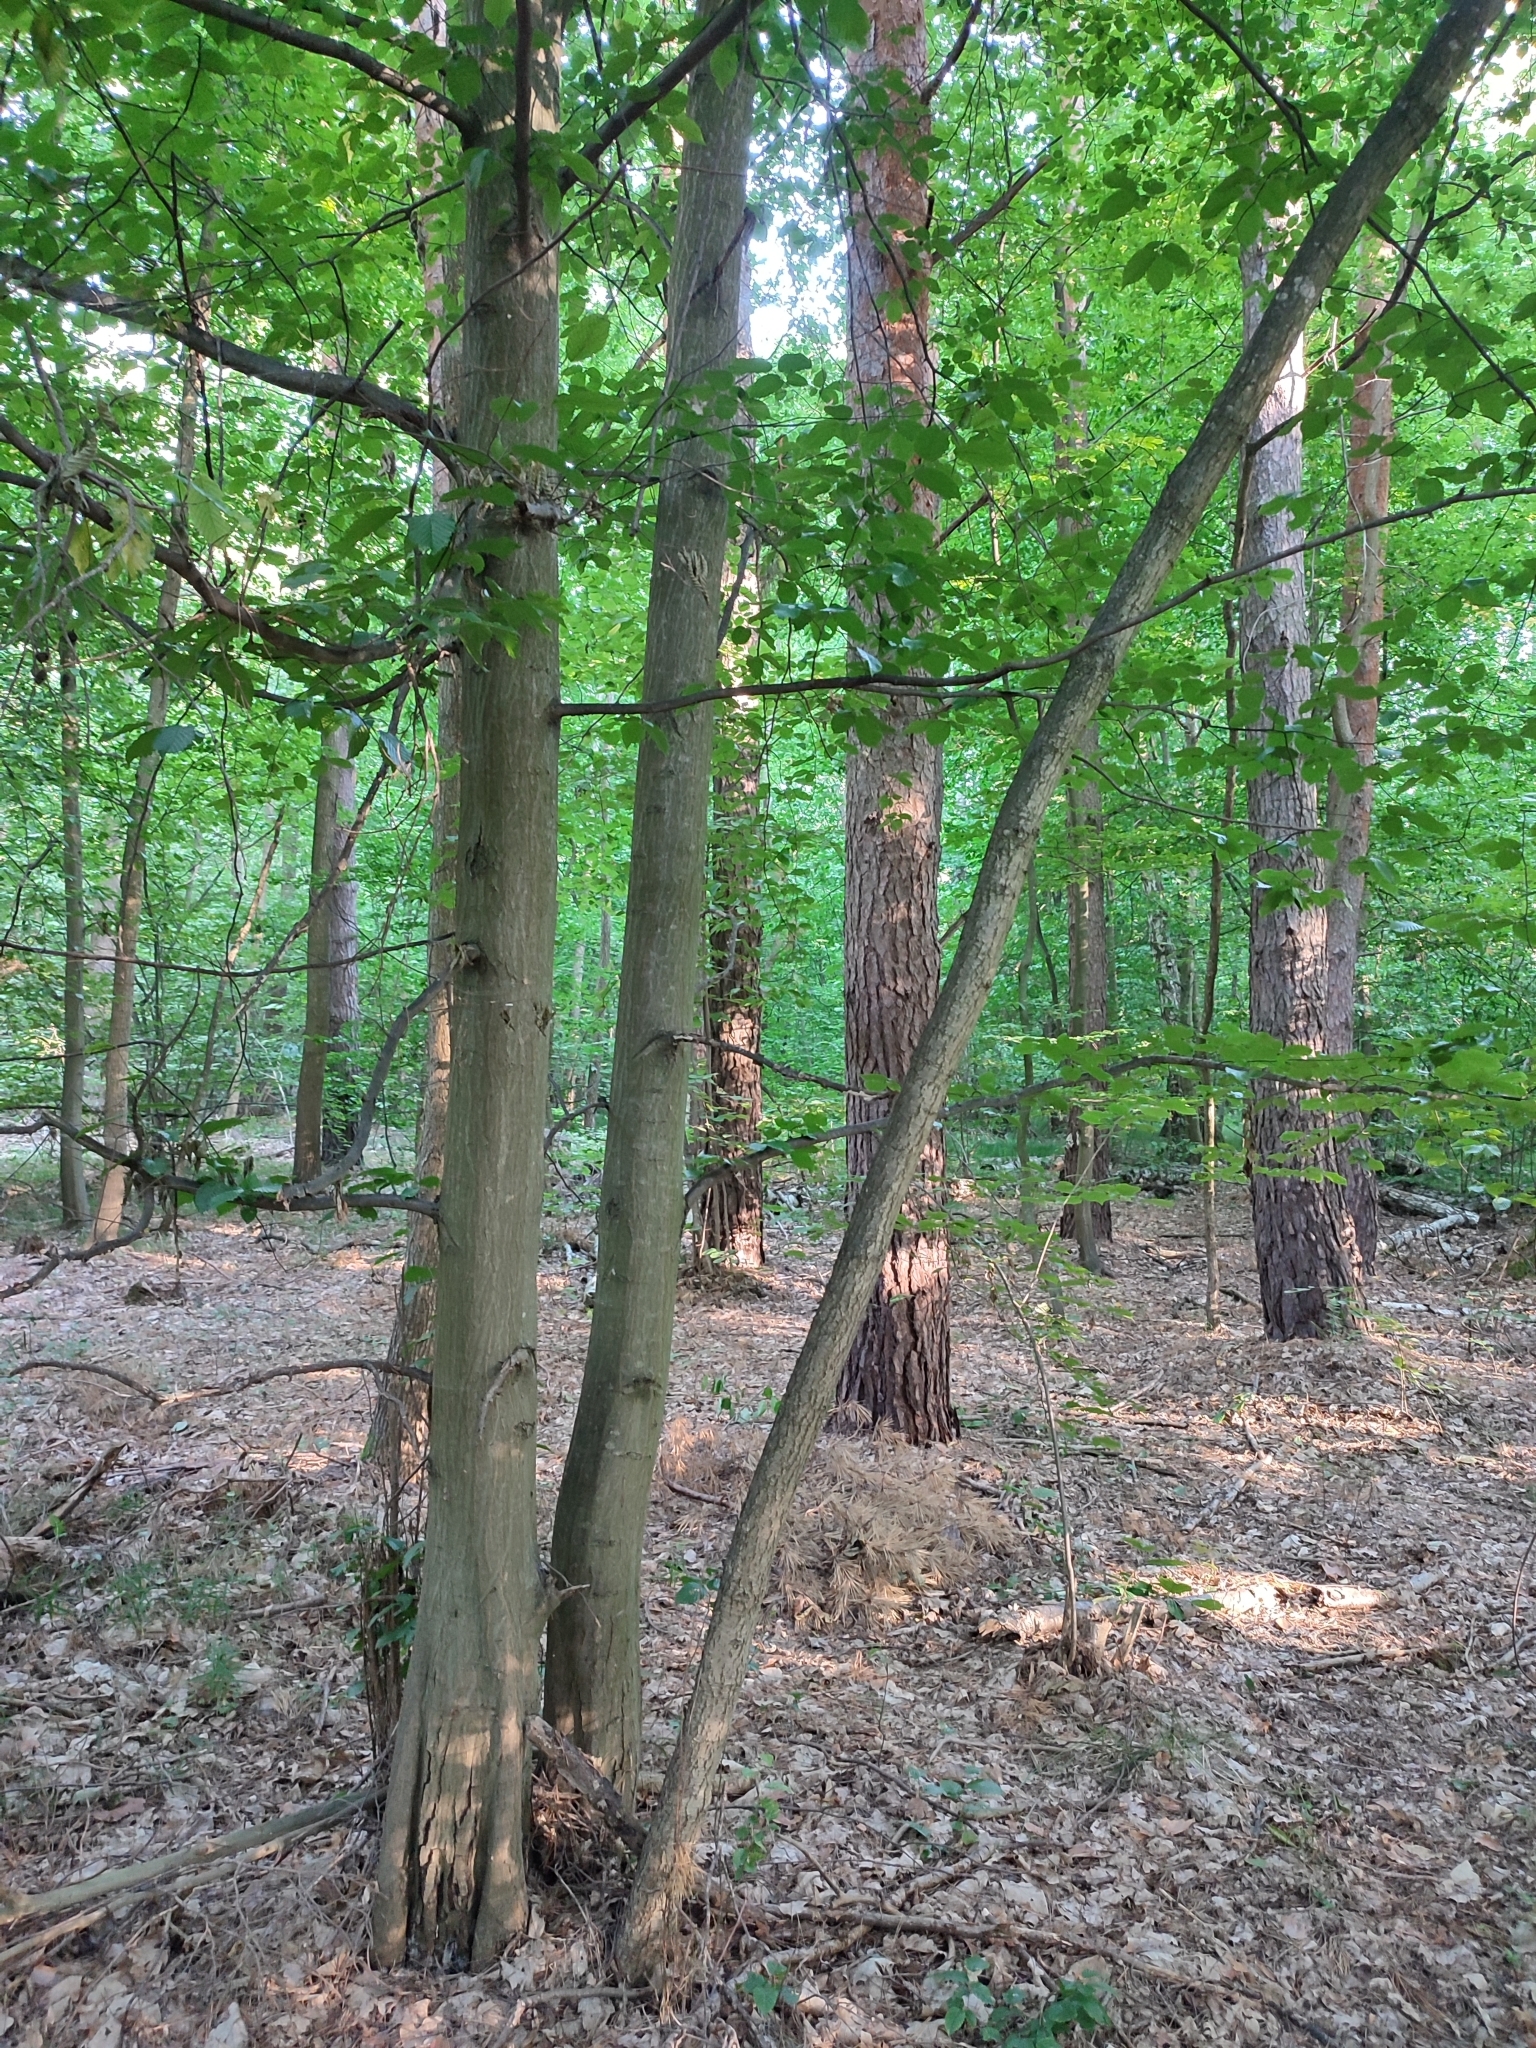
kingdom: Plantae
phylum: Tracheophyta
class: Magnoliopsida
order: Fagales
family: Betulaceae
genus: Carpinus
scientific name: Carpinus betulus
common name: Hornbeam
